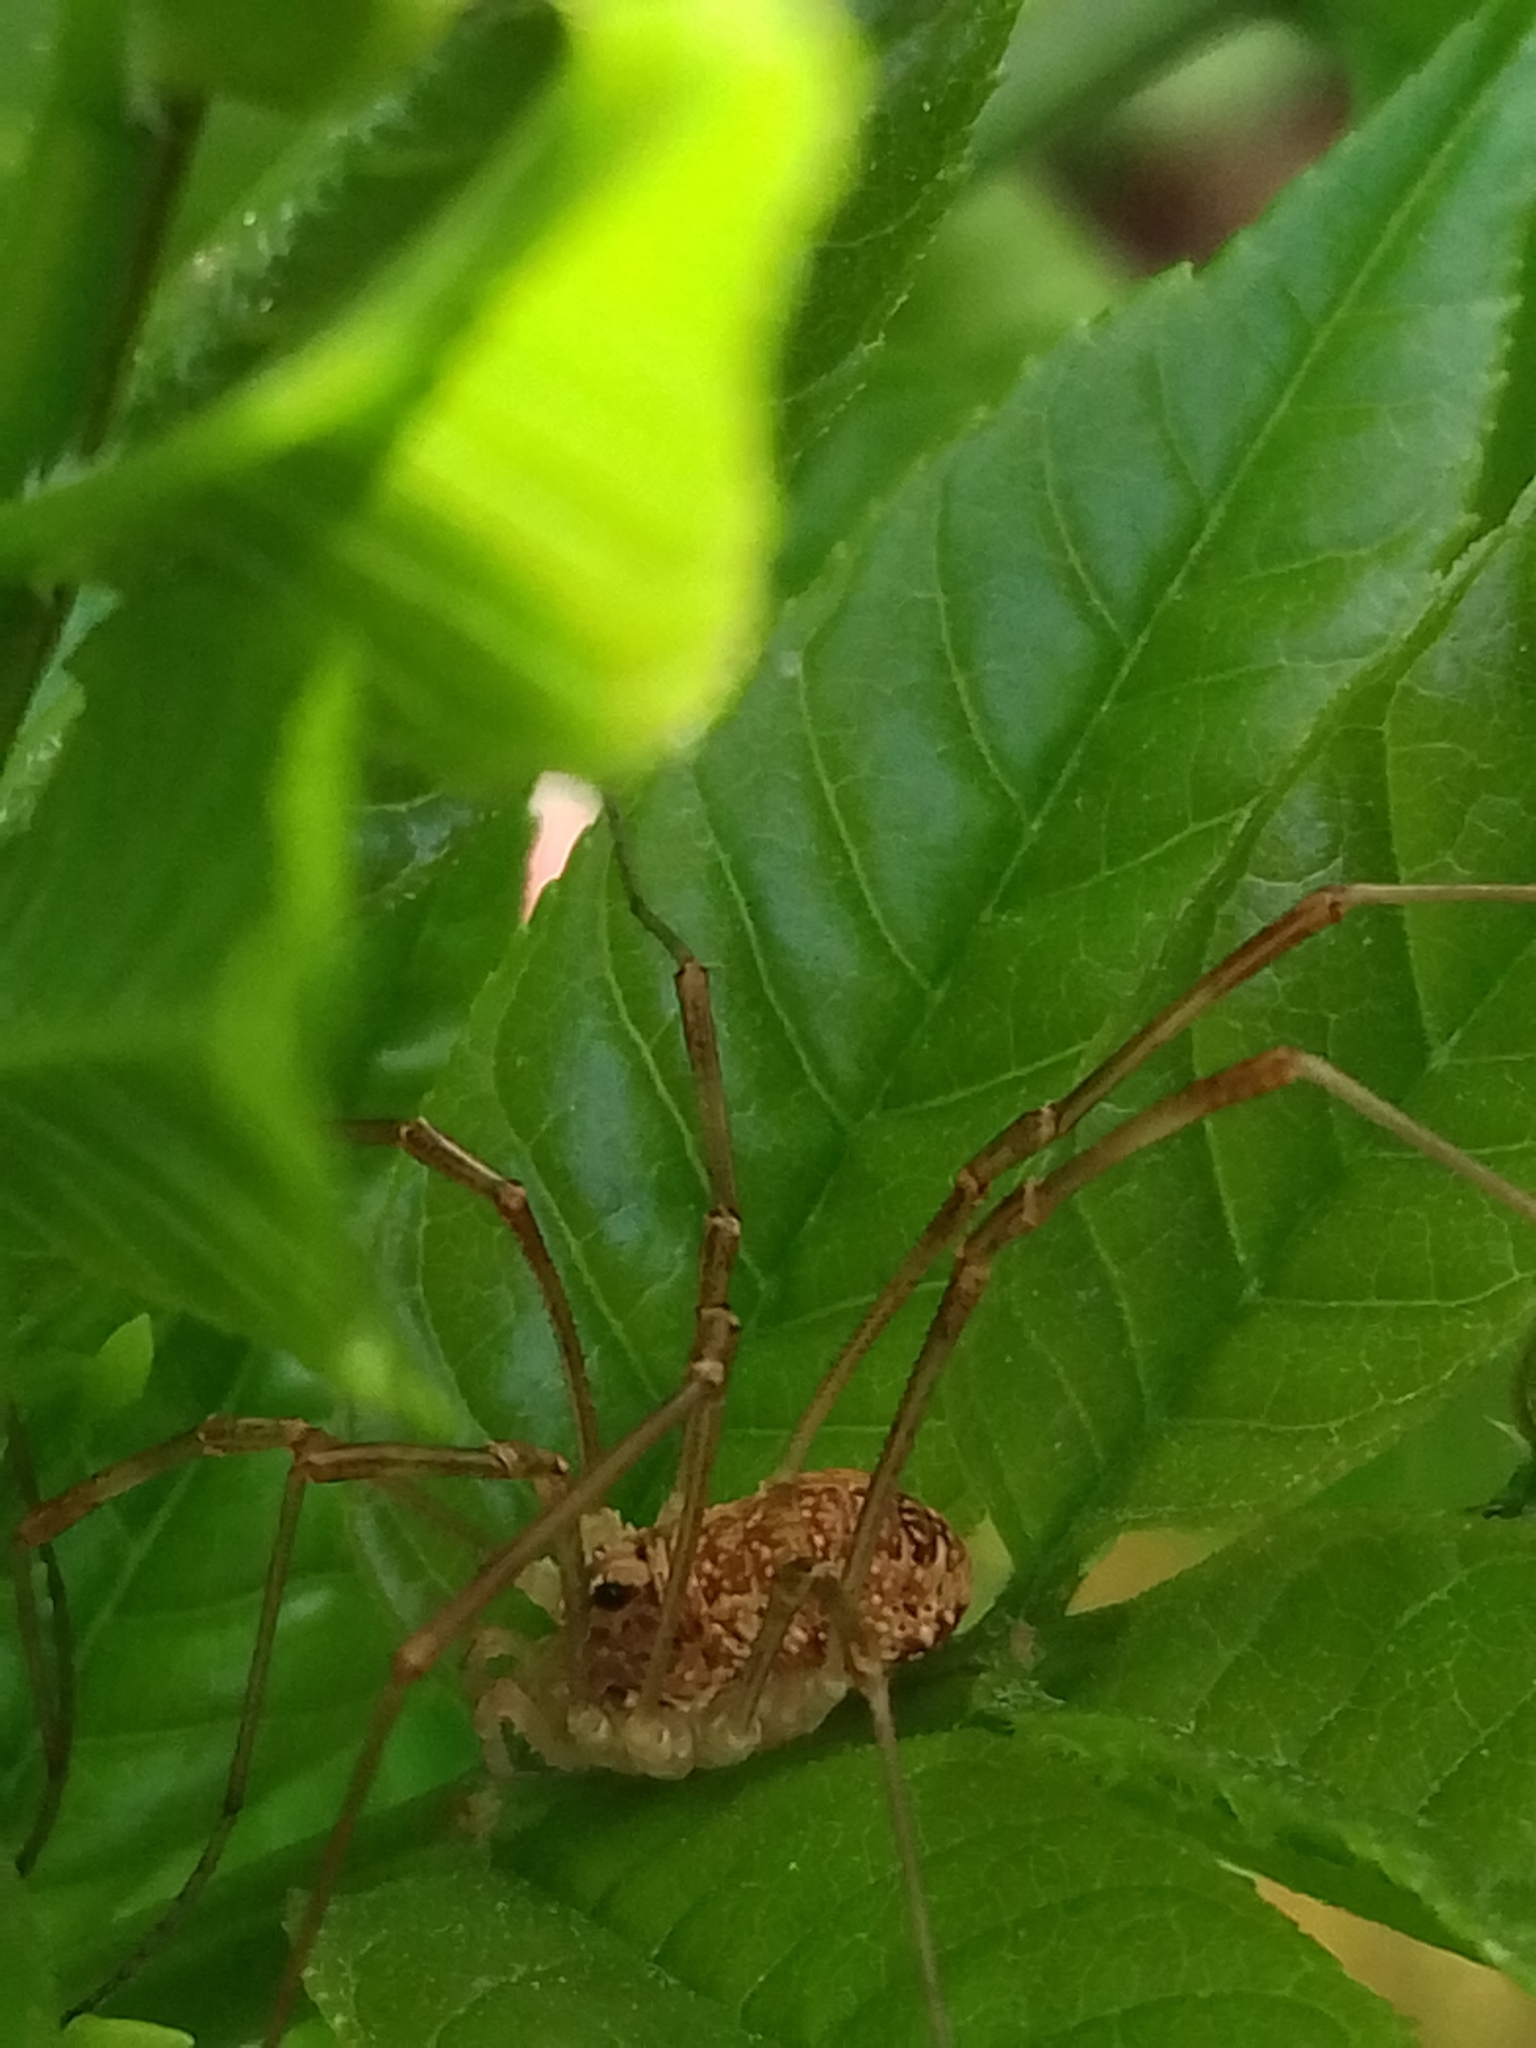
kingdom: Animalia
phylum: Arthropoda
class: Arachnida
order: Opiliones
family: Phalangiidae
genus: Rilaena
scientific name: Rilaena triangularis
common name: Spring harvestman
